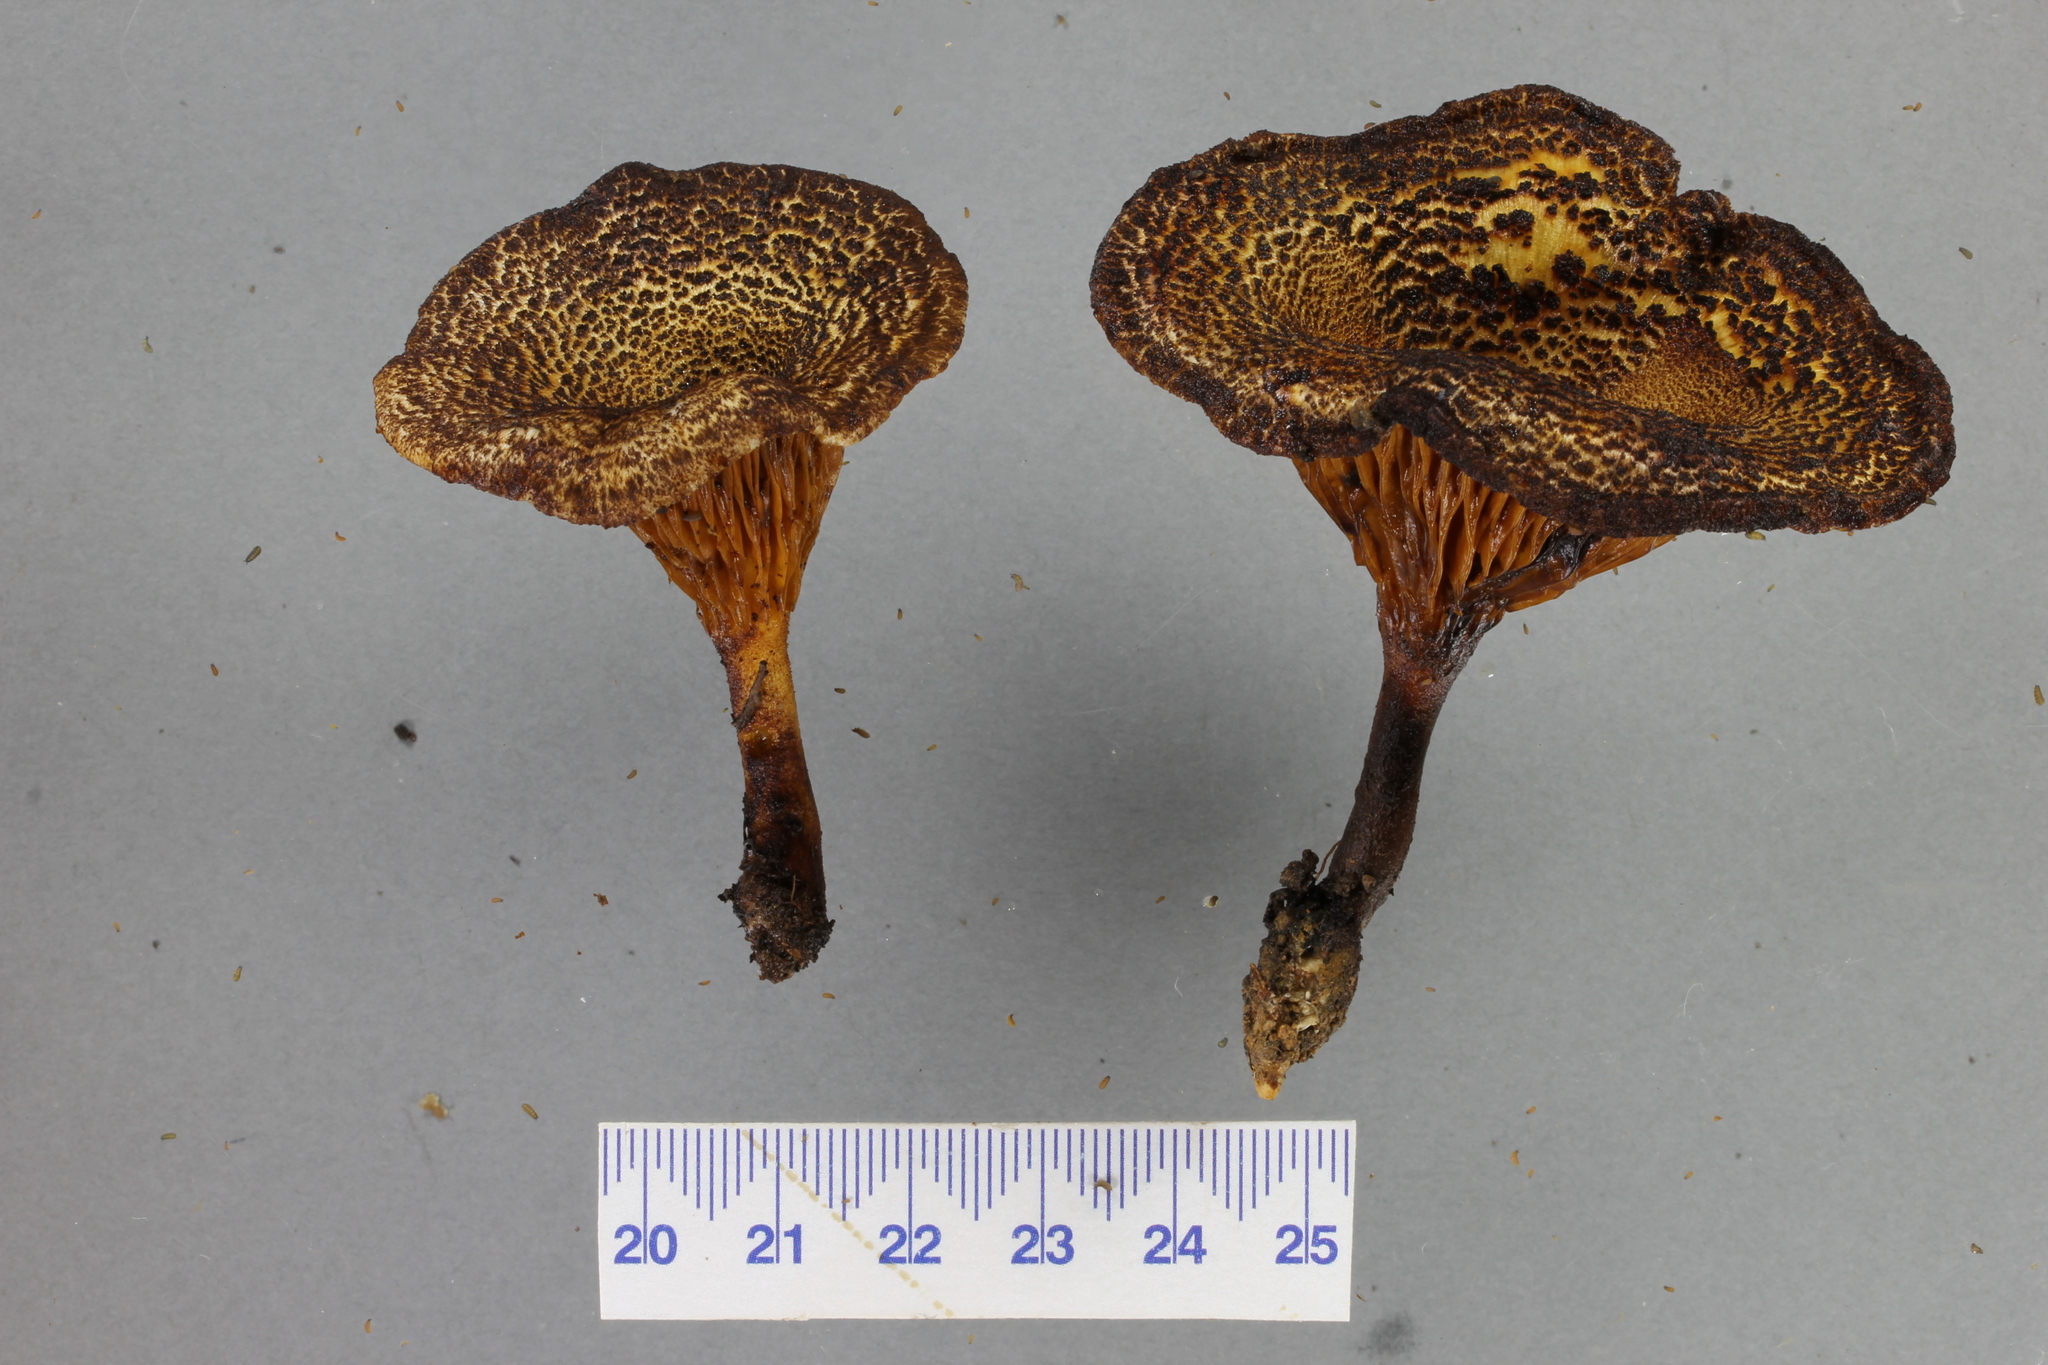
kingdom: Fungi
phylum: Basidiomycota
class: Agaricomycetes
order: Boletales
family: Serpulaceae
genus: Austropaxillus
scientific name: Austropaxillus squarrosus
